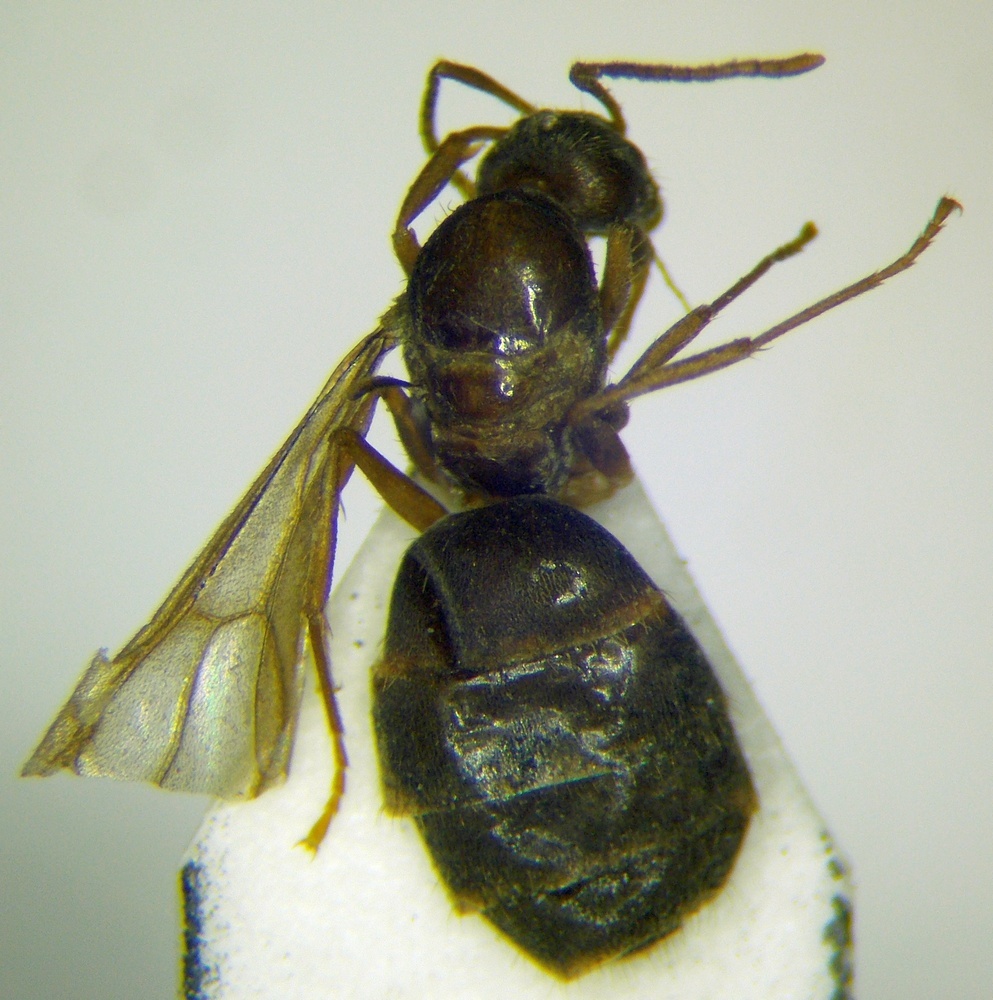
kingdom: Animalia
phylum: Arthropoda
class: Insecta
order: Hymenoptera
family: Formicidae
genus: Paratrechina
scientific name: Paratrechina jaegerskioeldi
